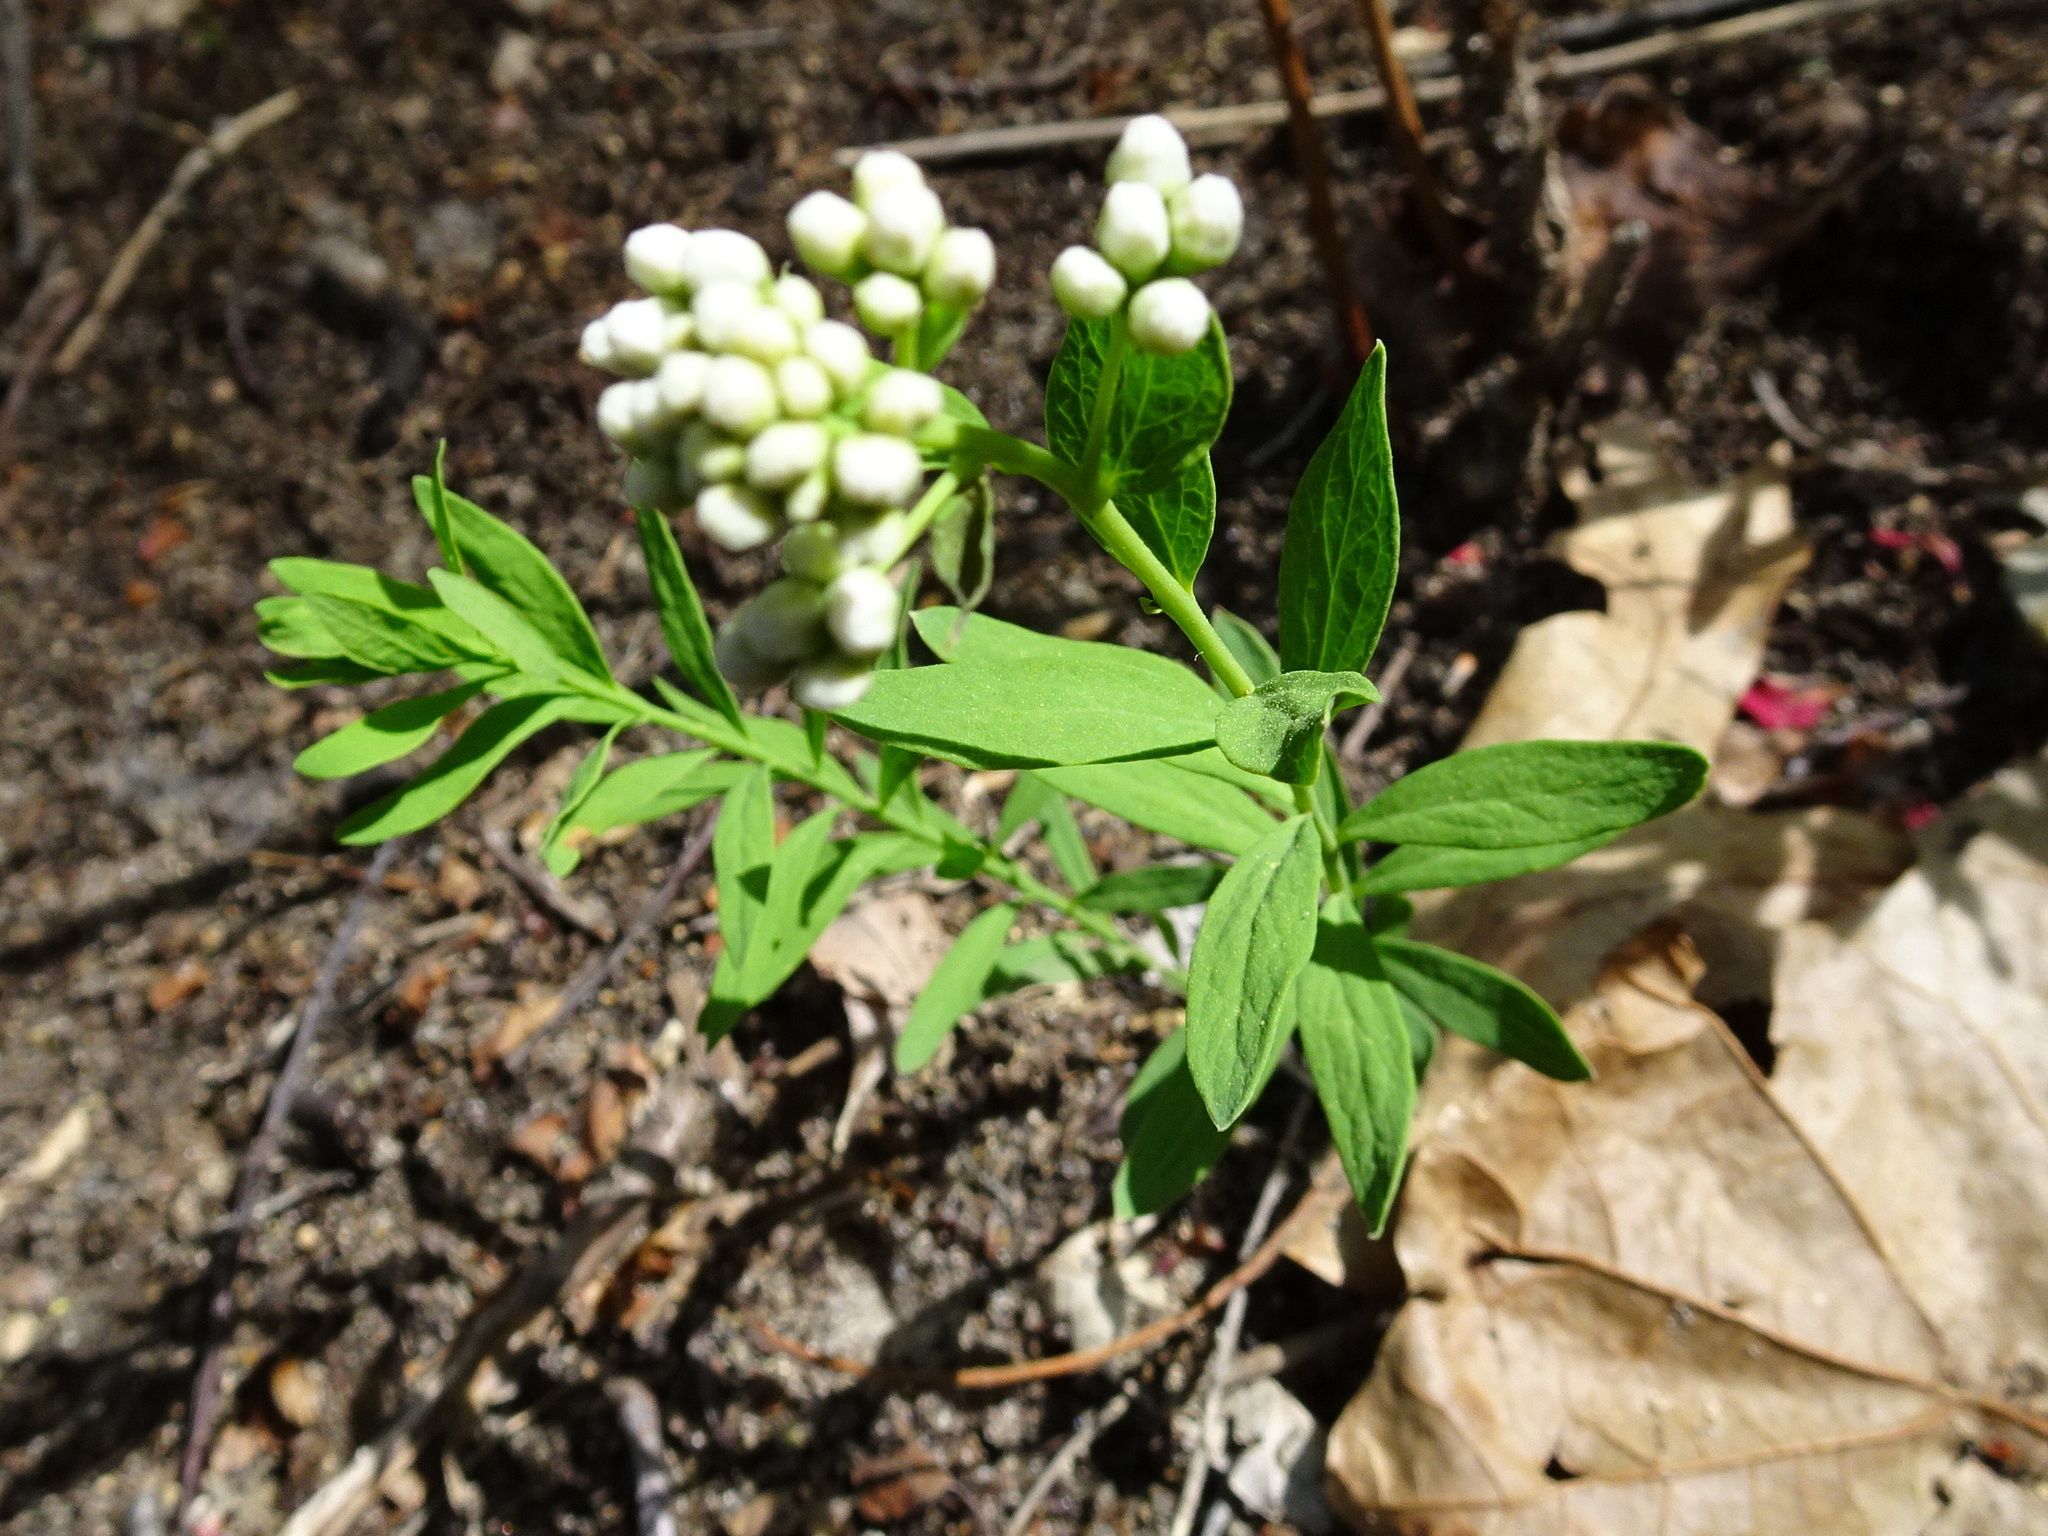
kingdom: Plantae
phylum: Tracheophyta
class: Magnoliopsida
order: Santalales
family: Comandraceae
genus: Comandra
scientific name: Comandra umbellata
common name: Bastard toadflax
